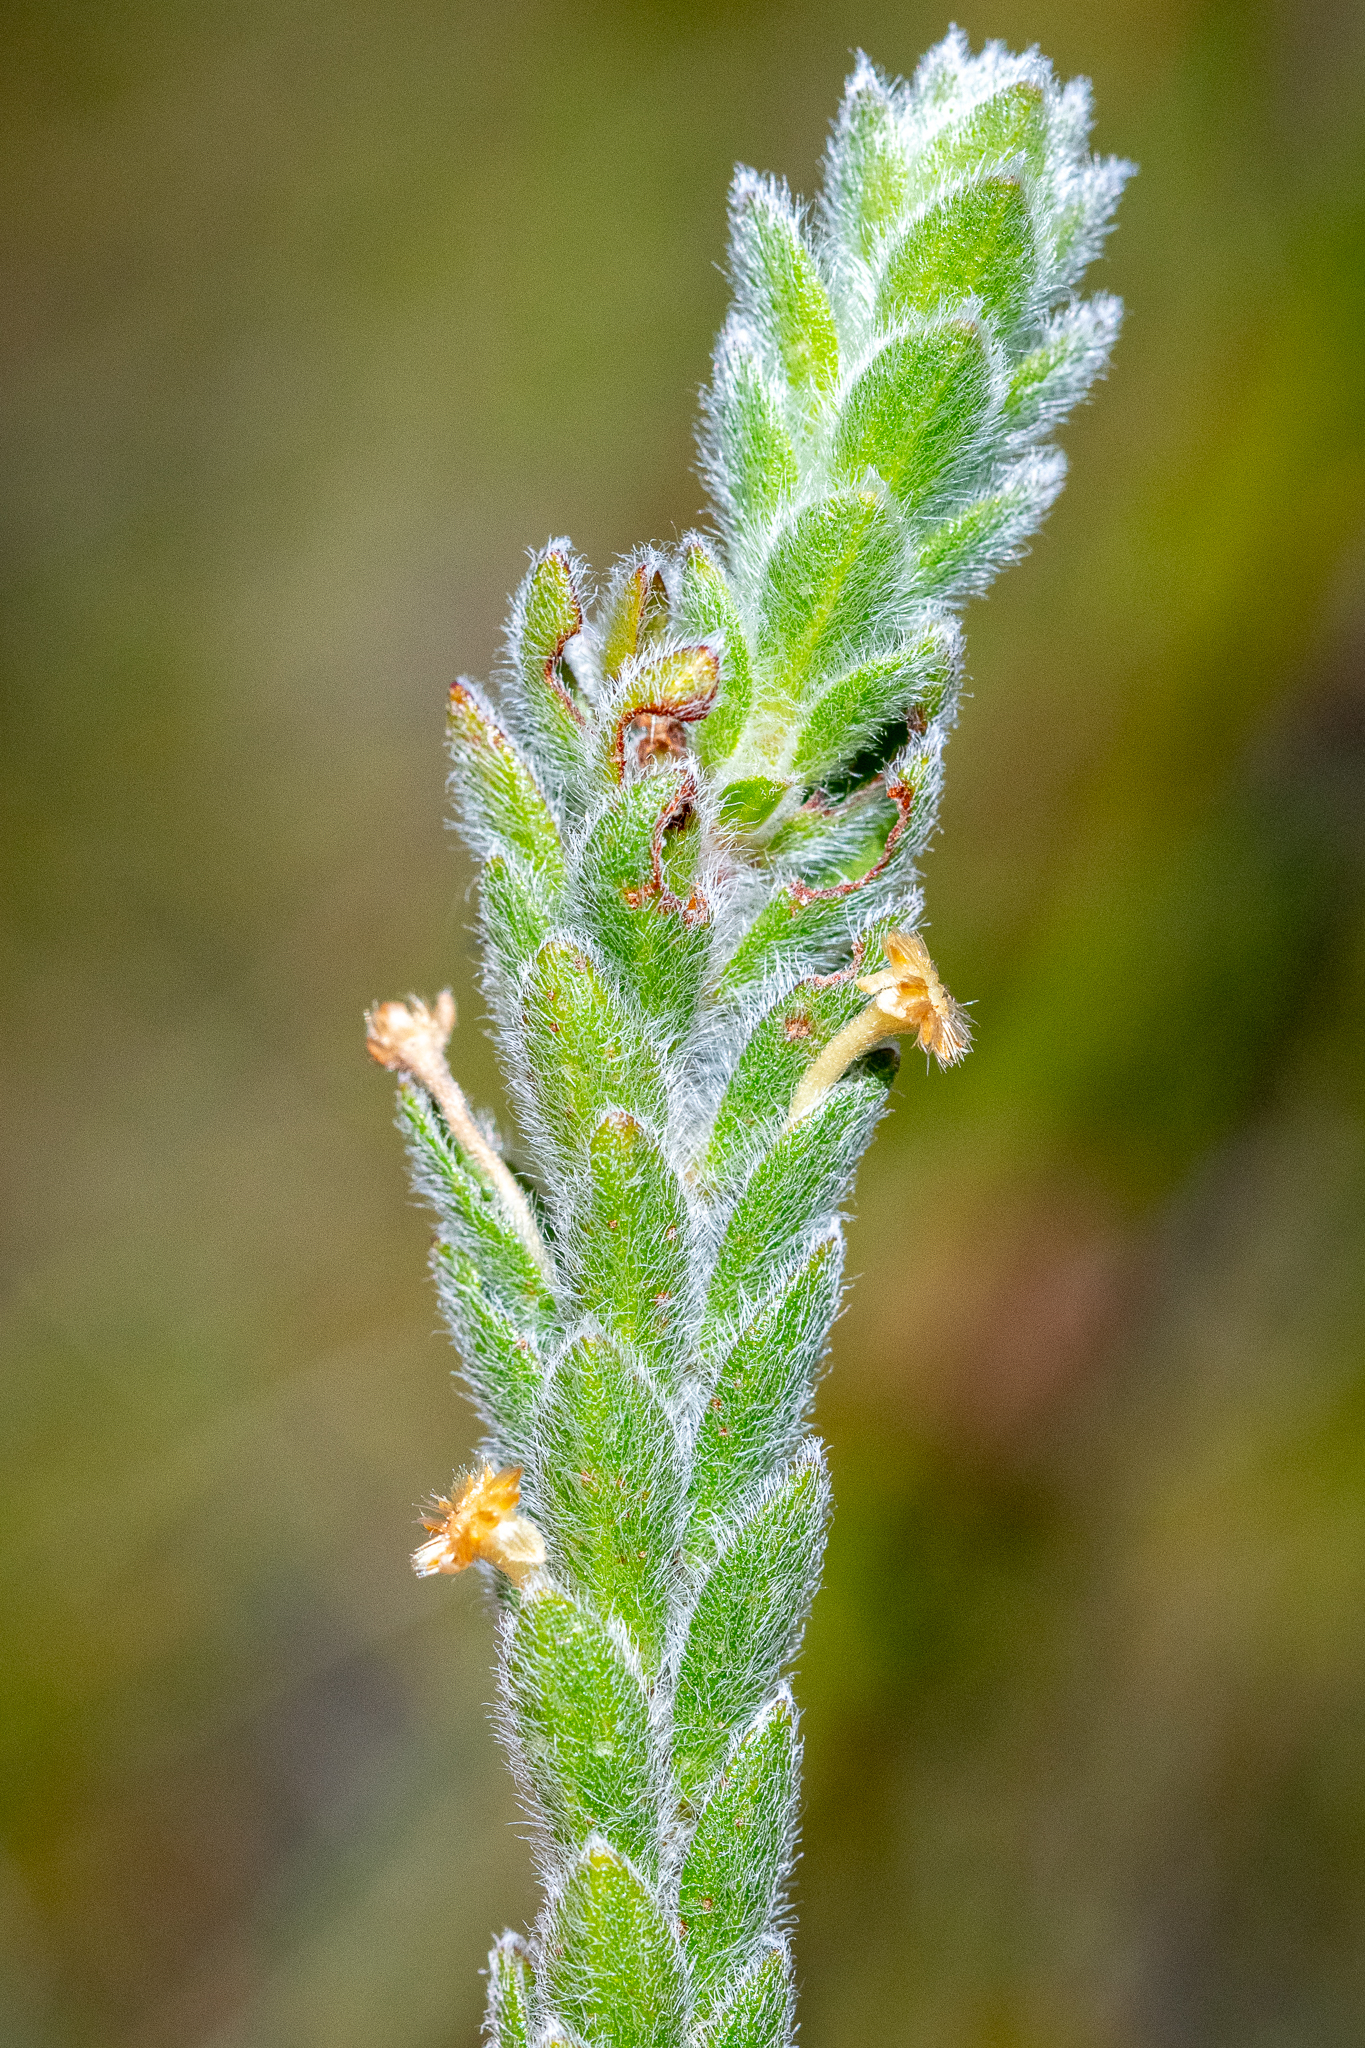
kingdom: Plantae
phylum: Tracheophyta
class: Magnoliopsida
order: Malvales
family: Thymelaeaceae
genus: Struthiola
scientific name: Struthiola tomentosa
